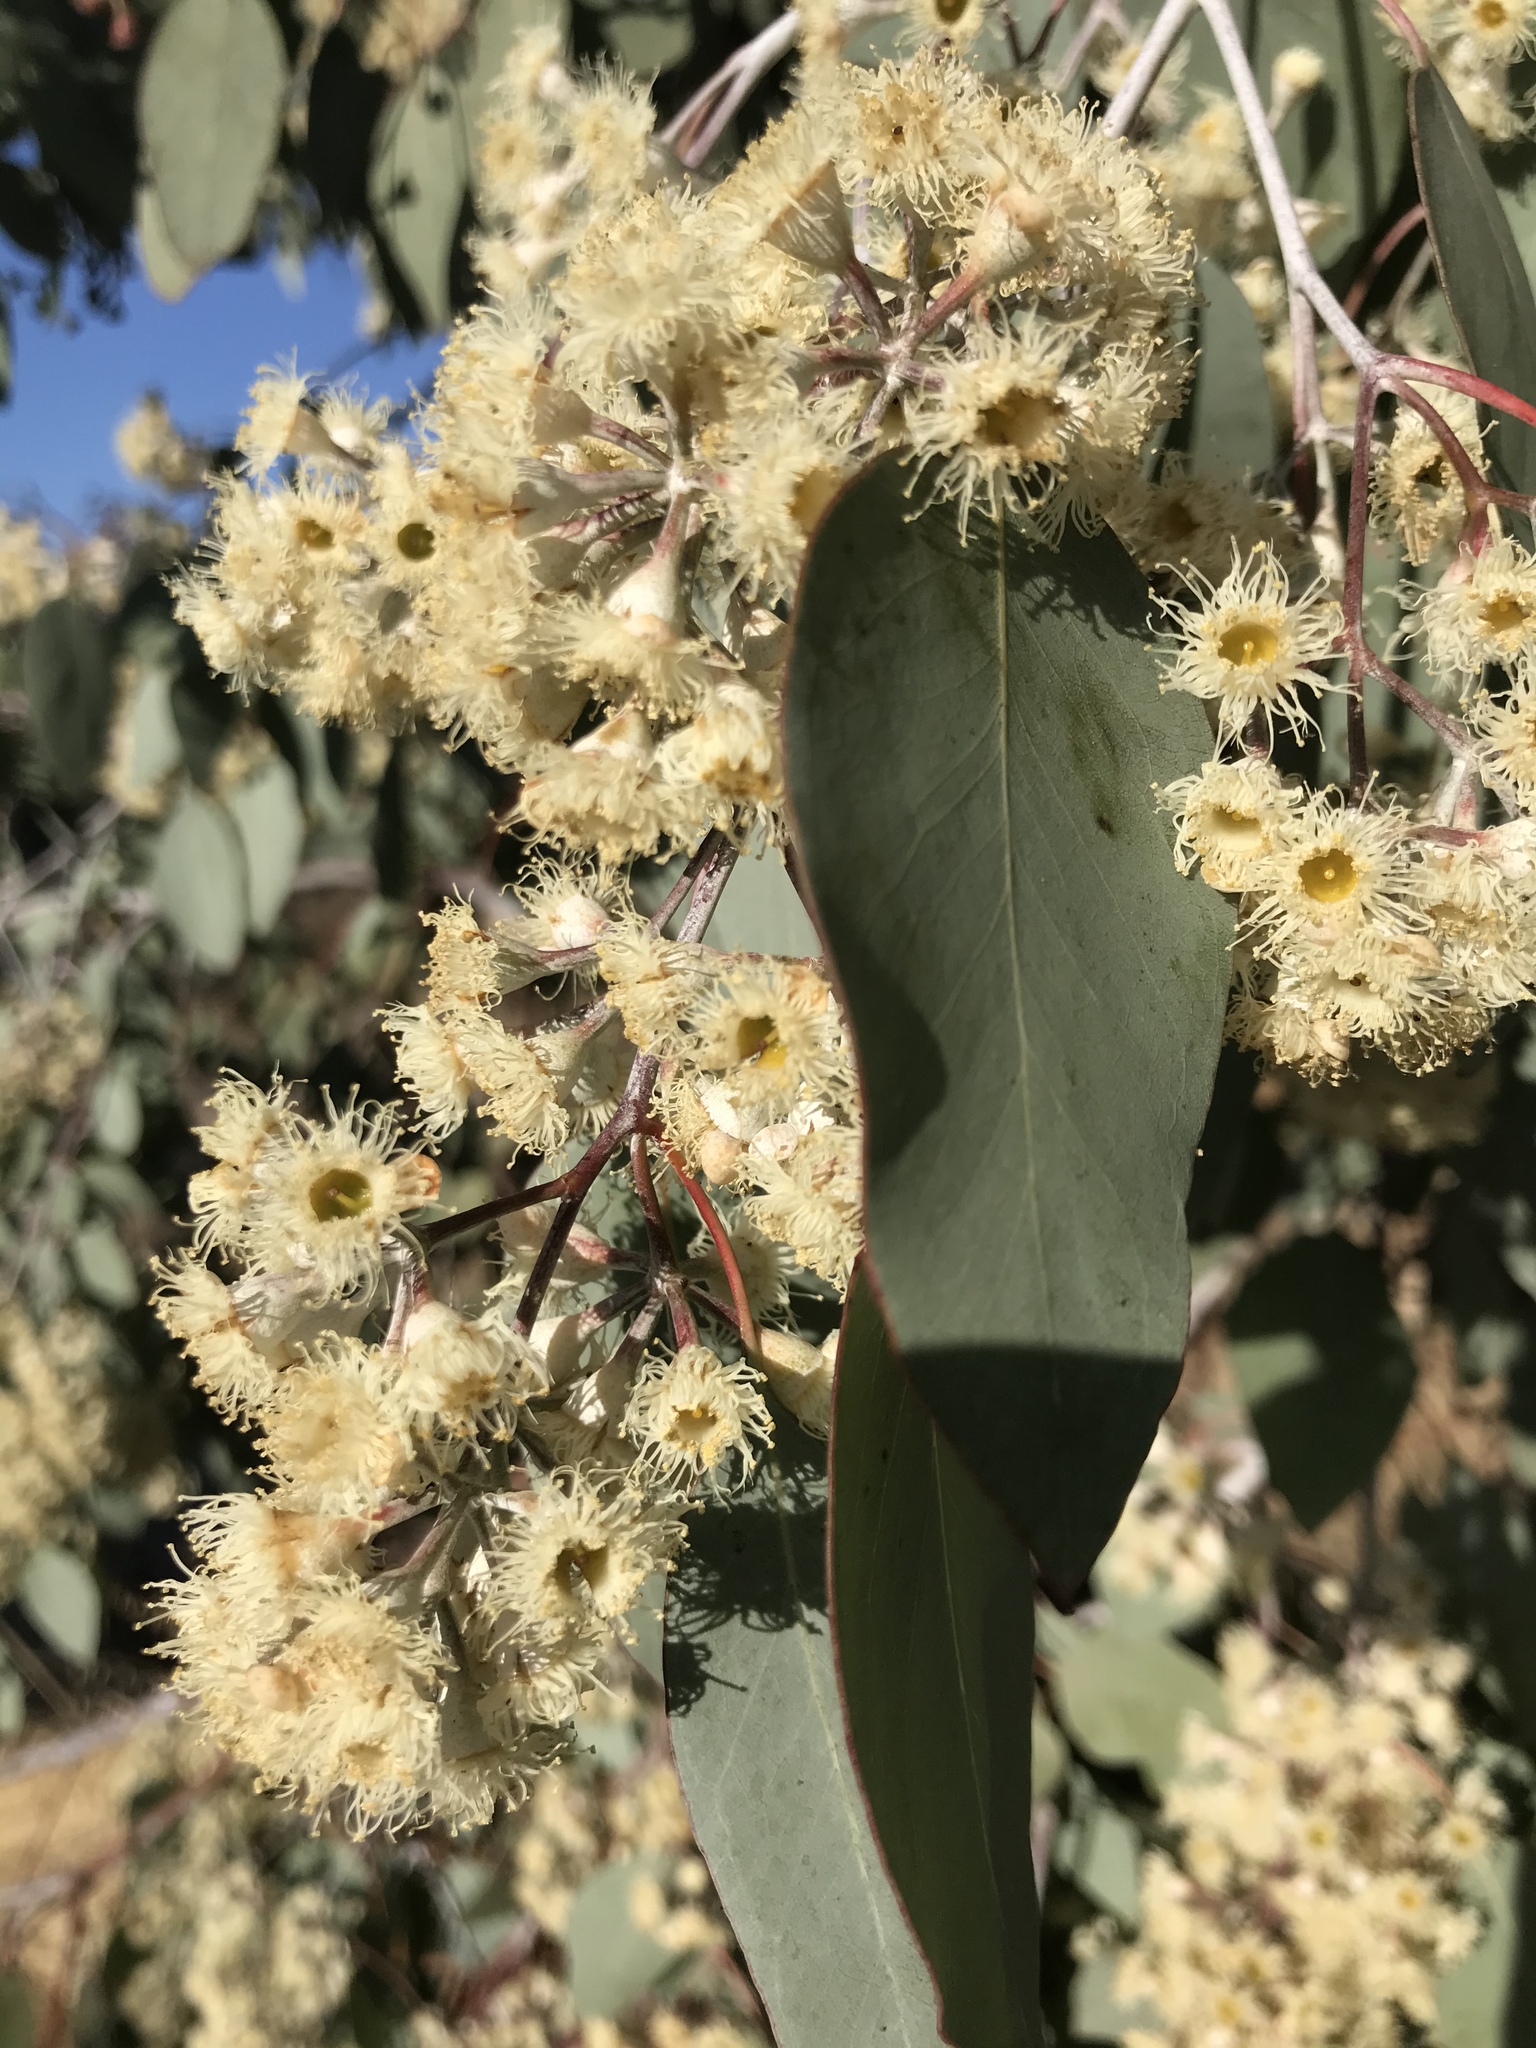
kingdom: Plantae
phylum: Tracheophyta
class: Magnoliopsida
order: Myrtales
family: Myrtaceae
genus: Eucalyptus
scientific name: Eucalyptus globulus
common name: Southern blue-gum
